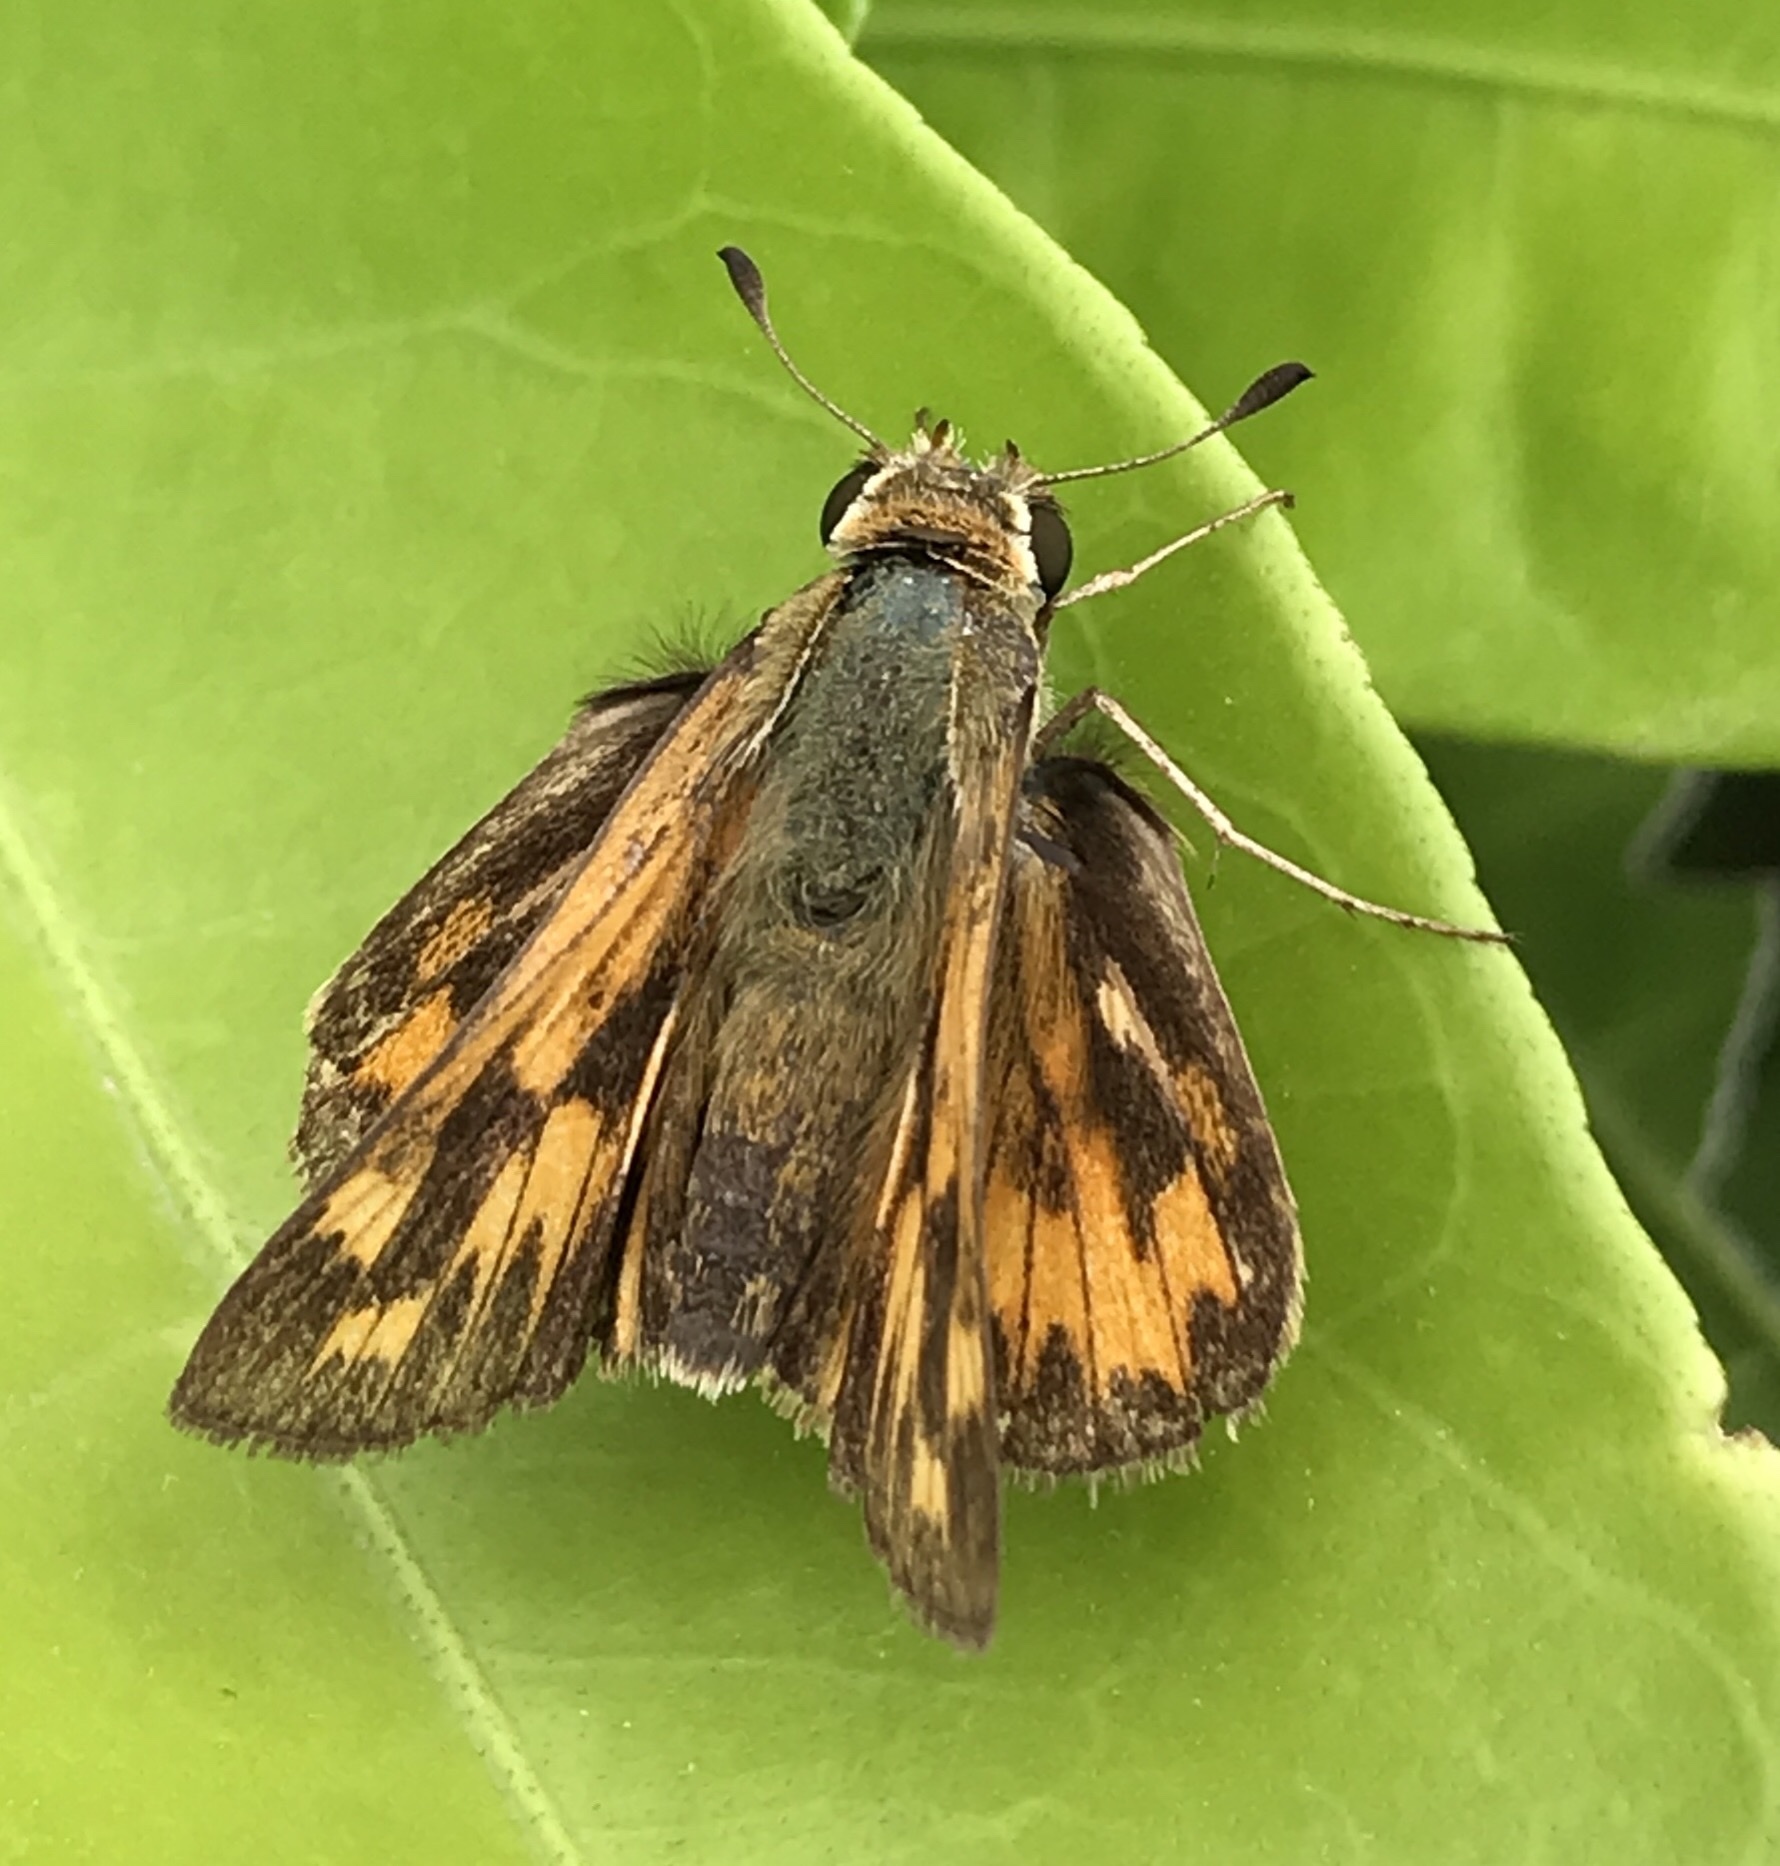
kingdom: Animalia
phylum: Arthropoda
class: Insecta
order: Lepidoptera
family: Hesperiidae
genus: Hylephila
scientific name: Hylephila phyleus
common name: Fiery skipper
